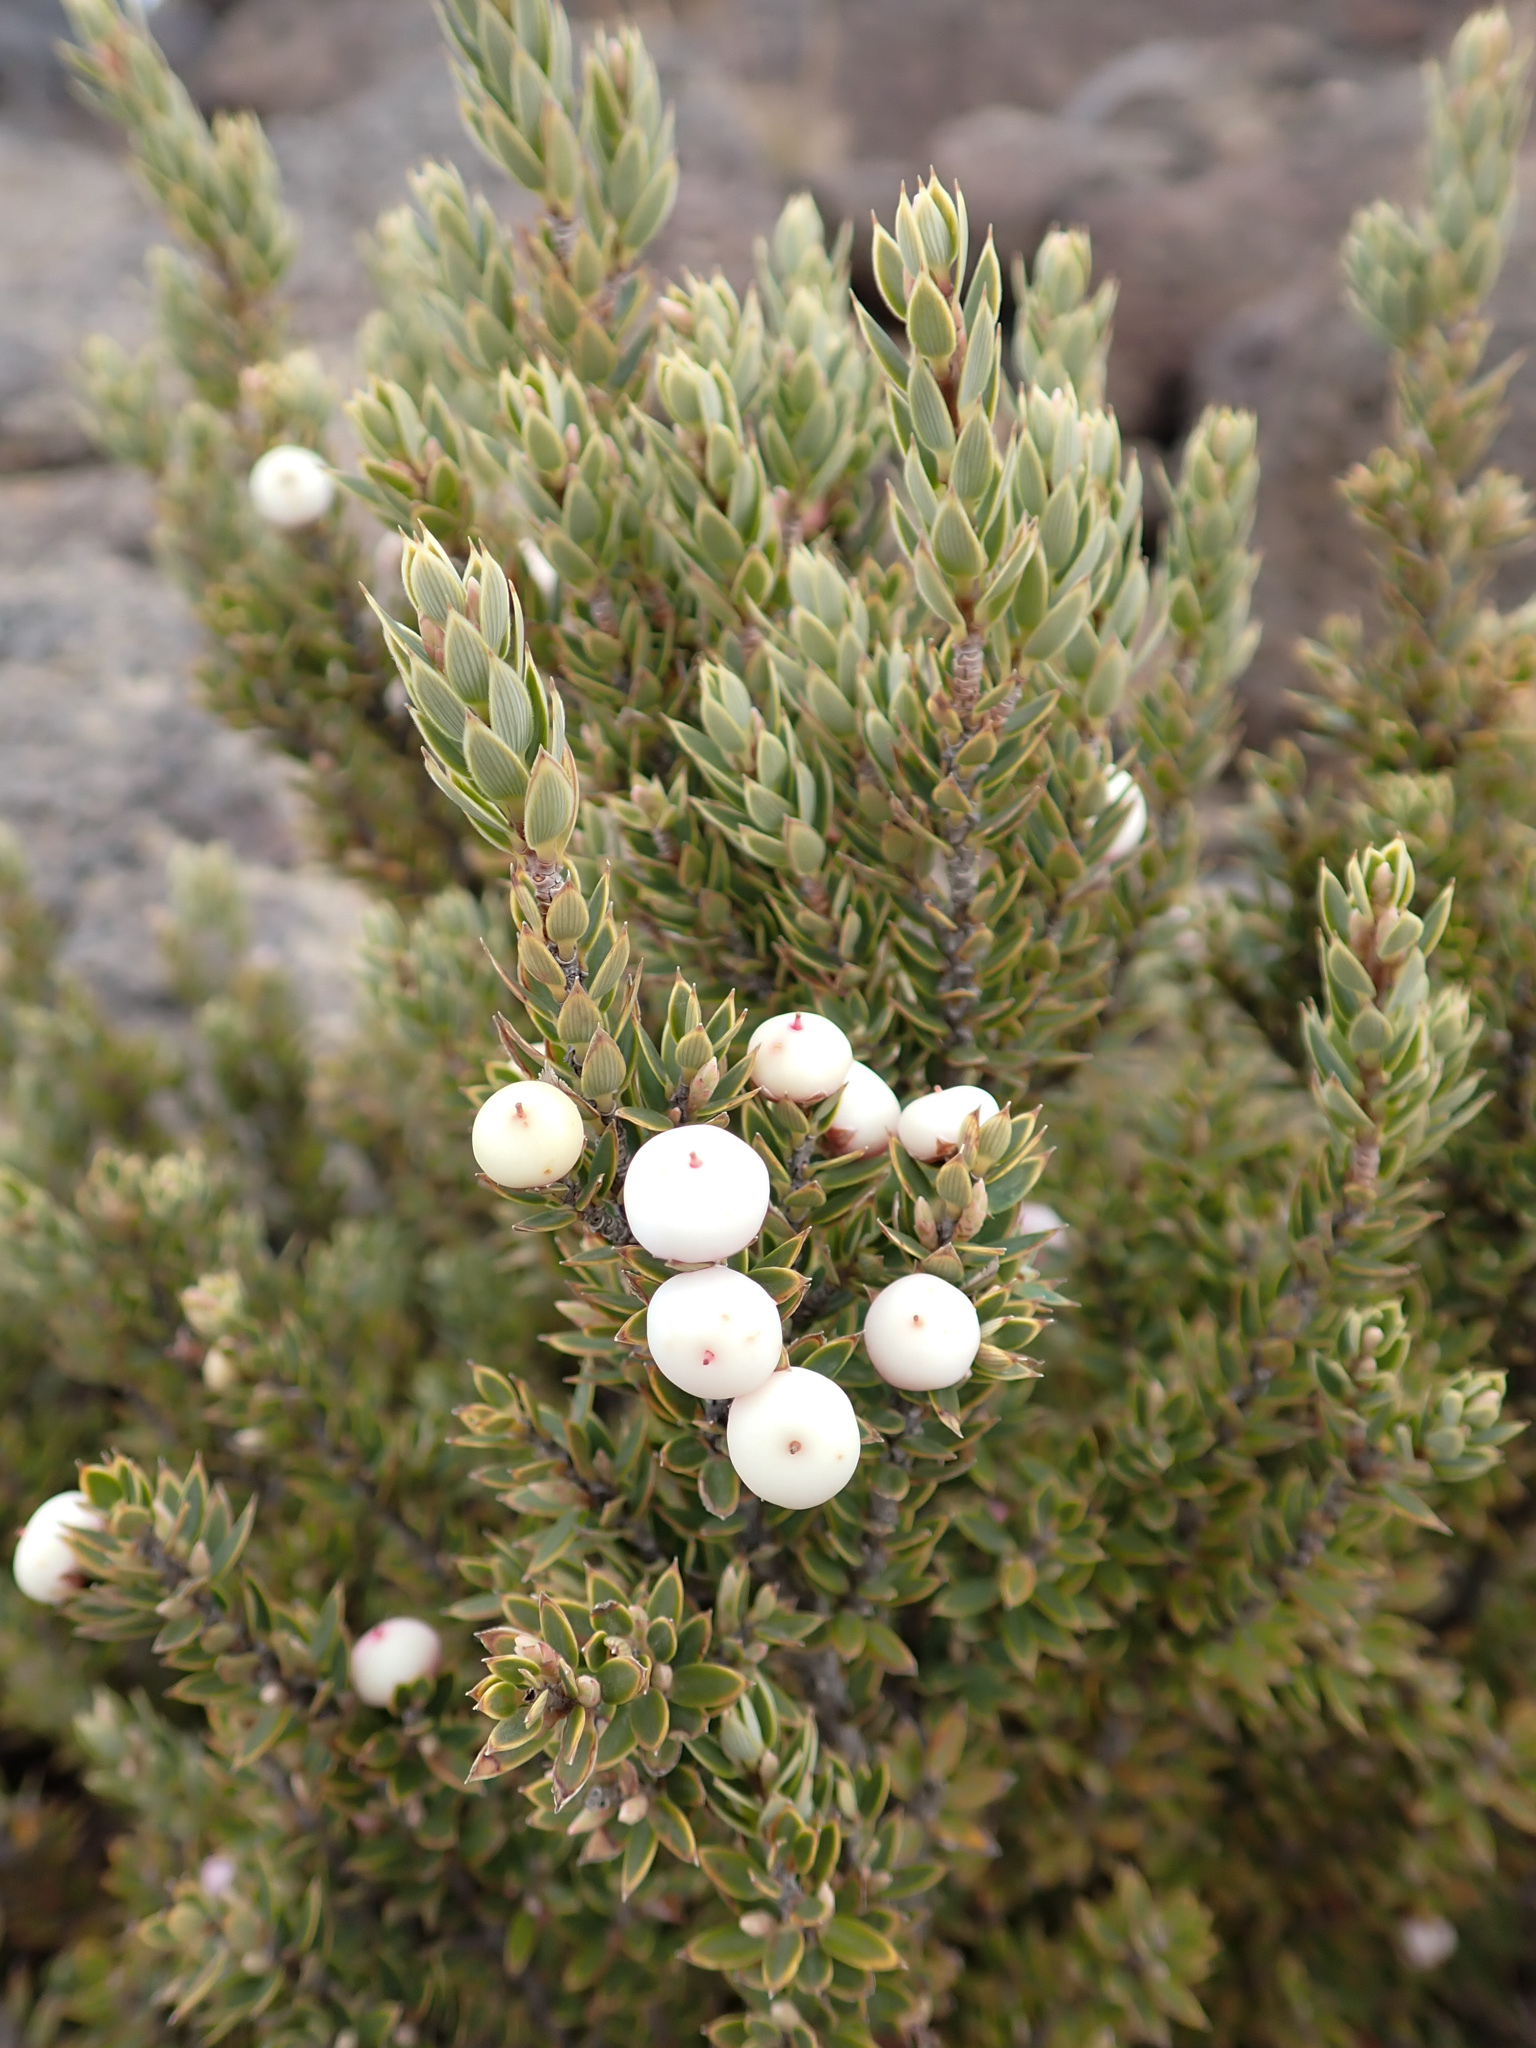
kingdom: Plantae
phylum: Tracheophyta
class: Magnoliopsida
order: Ericales
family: Ericaceae
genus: Leptecophylla
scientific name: Leptecophylla tameiameiae
